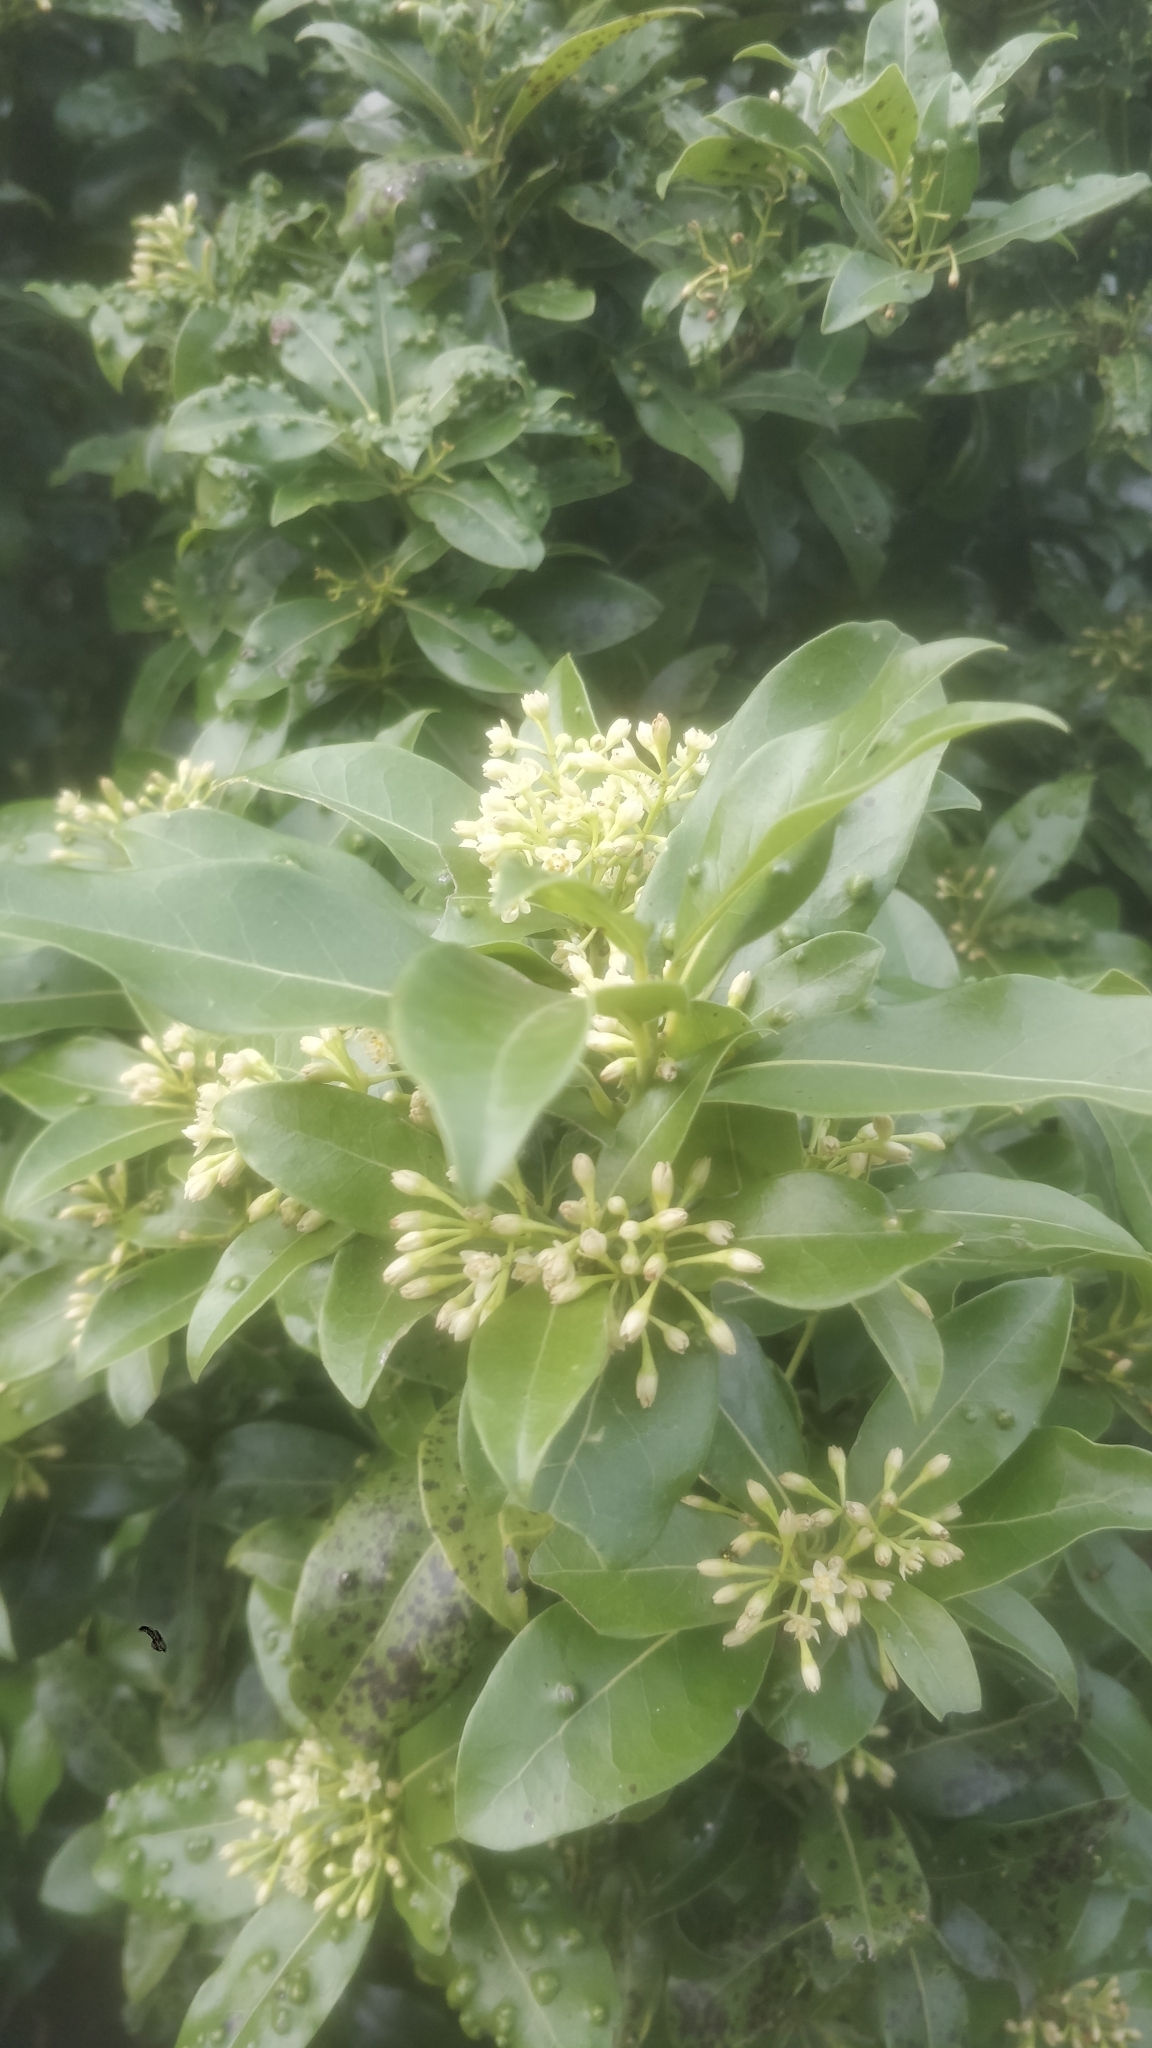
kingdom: Plantae
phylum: Tracheophyta
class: Magnoliopsida
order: Laurales
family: Lauraceae
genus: Apollonias
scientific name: Apollonias barbujana
